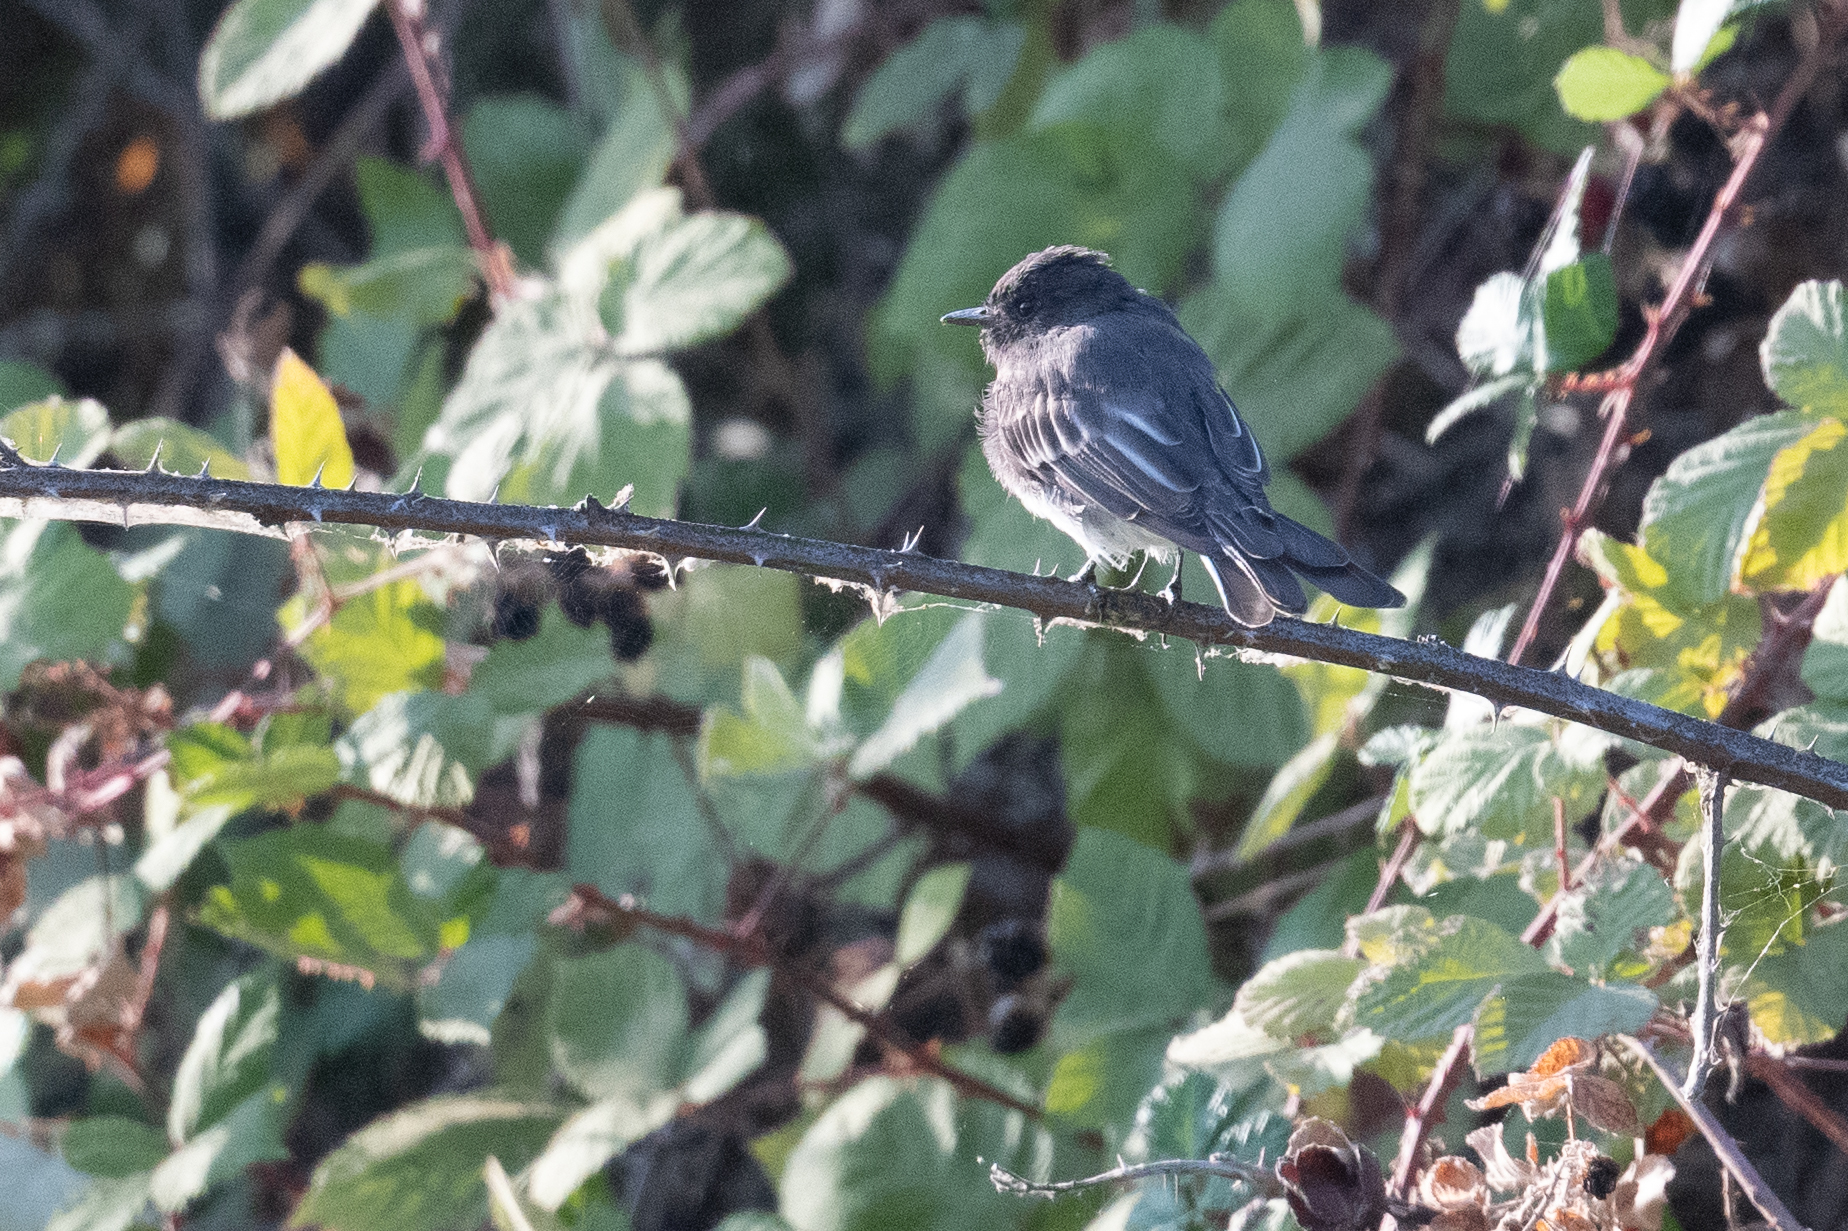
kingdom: Animalia
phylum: Chordata
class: Aves
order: Passeriformes
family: Tyrannidae
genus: Sayornis
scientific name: Sayornis nigricans
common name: Black phoebe
